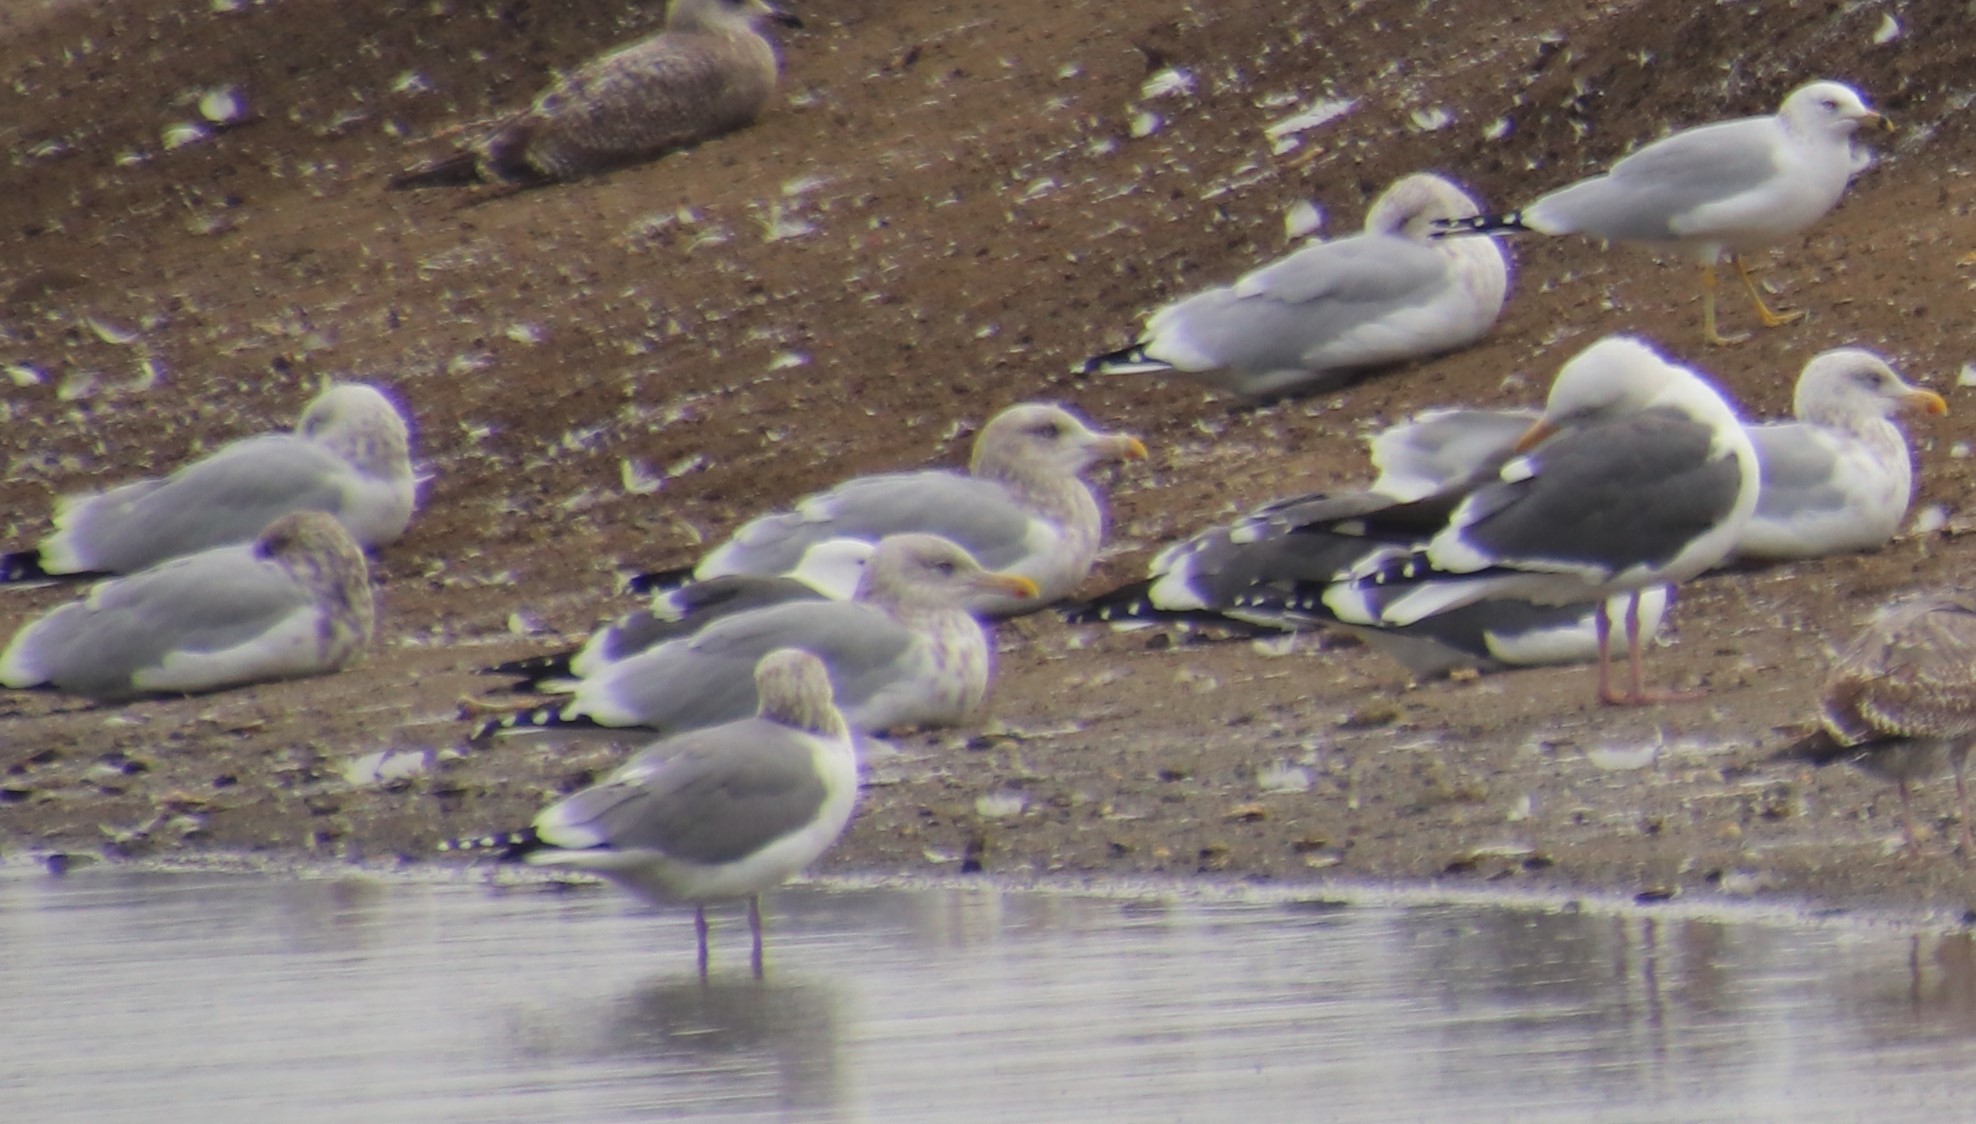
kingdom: Animalia
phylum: Chordata
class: Aves
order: Charadriiformes
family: Laridae
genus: Larus
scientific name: Larus argentatus
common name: Herring gull
